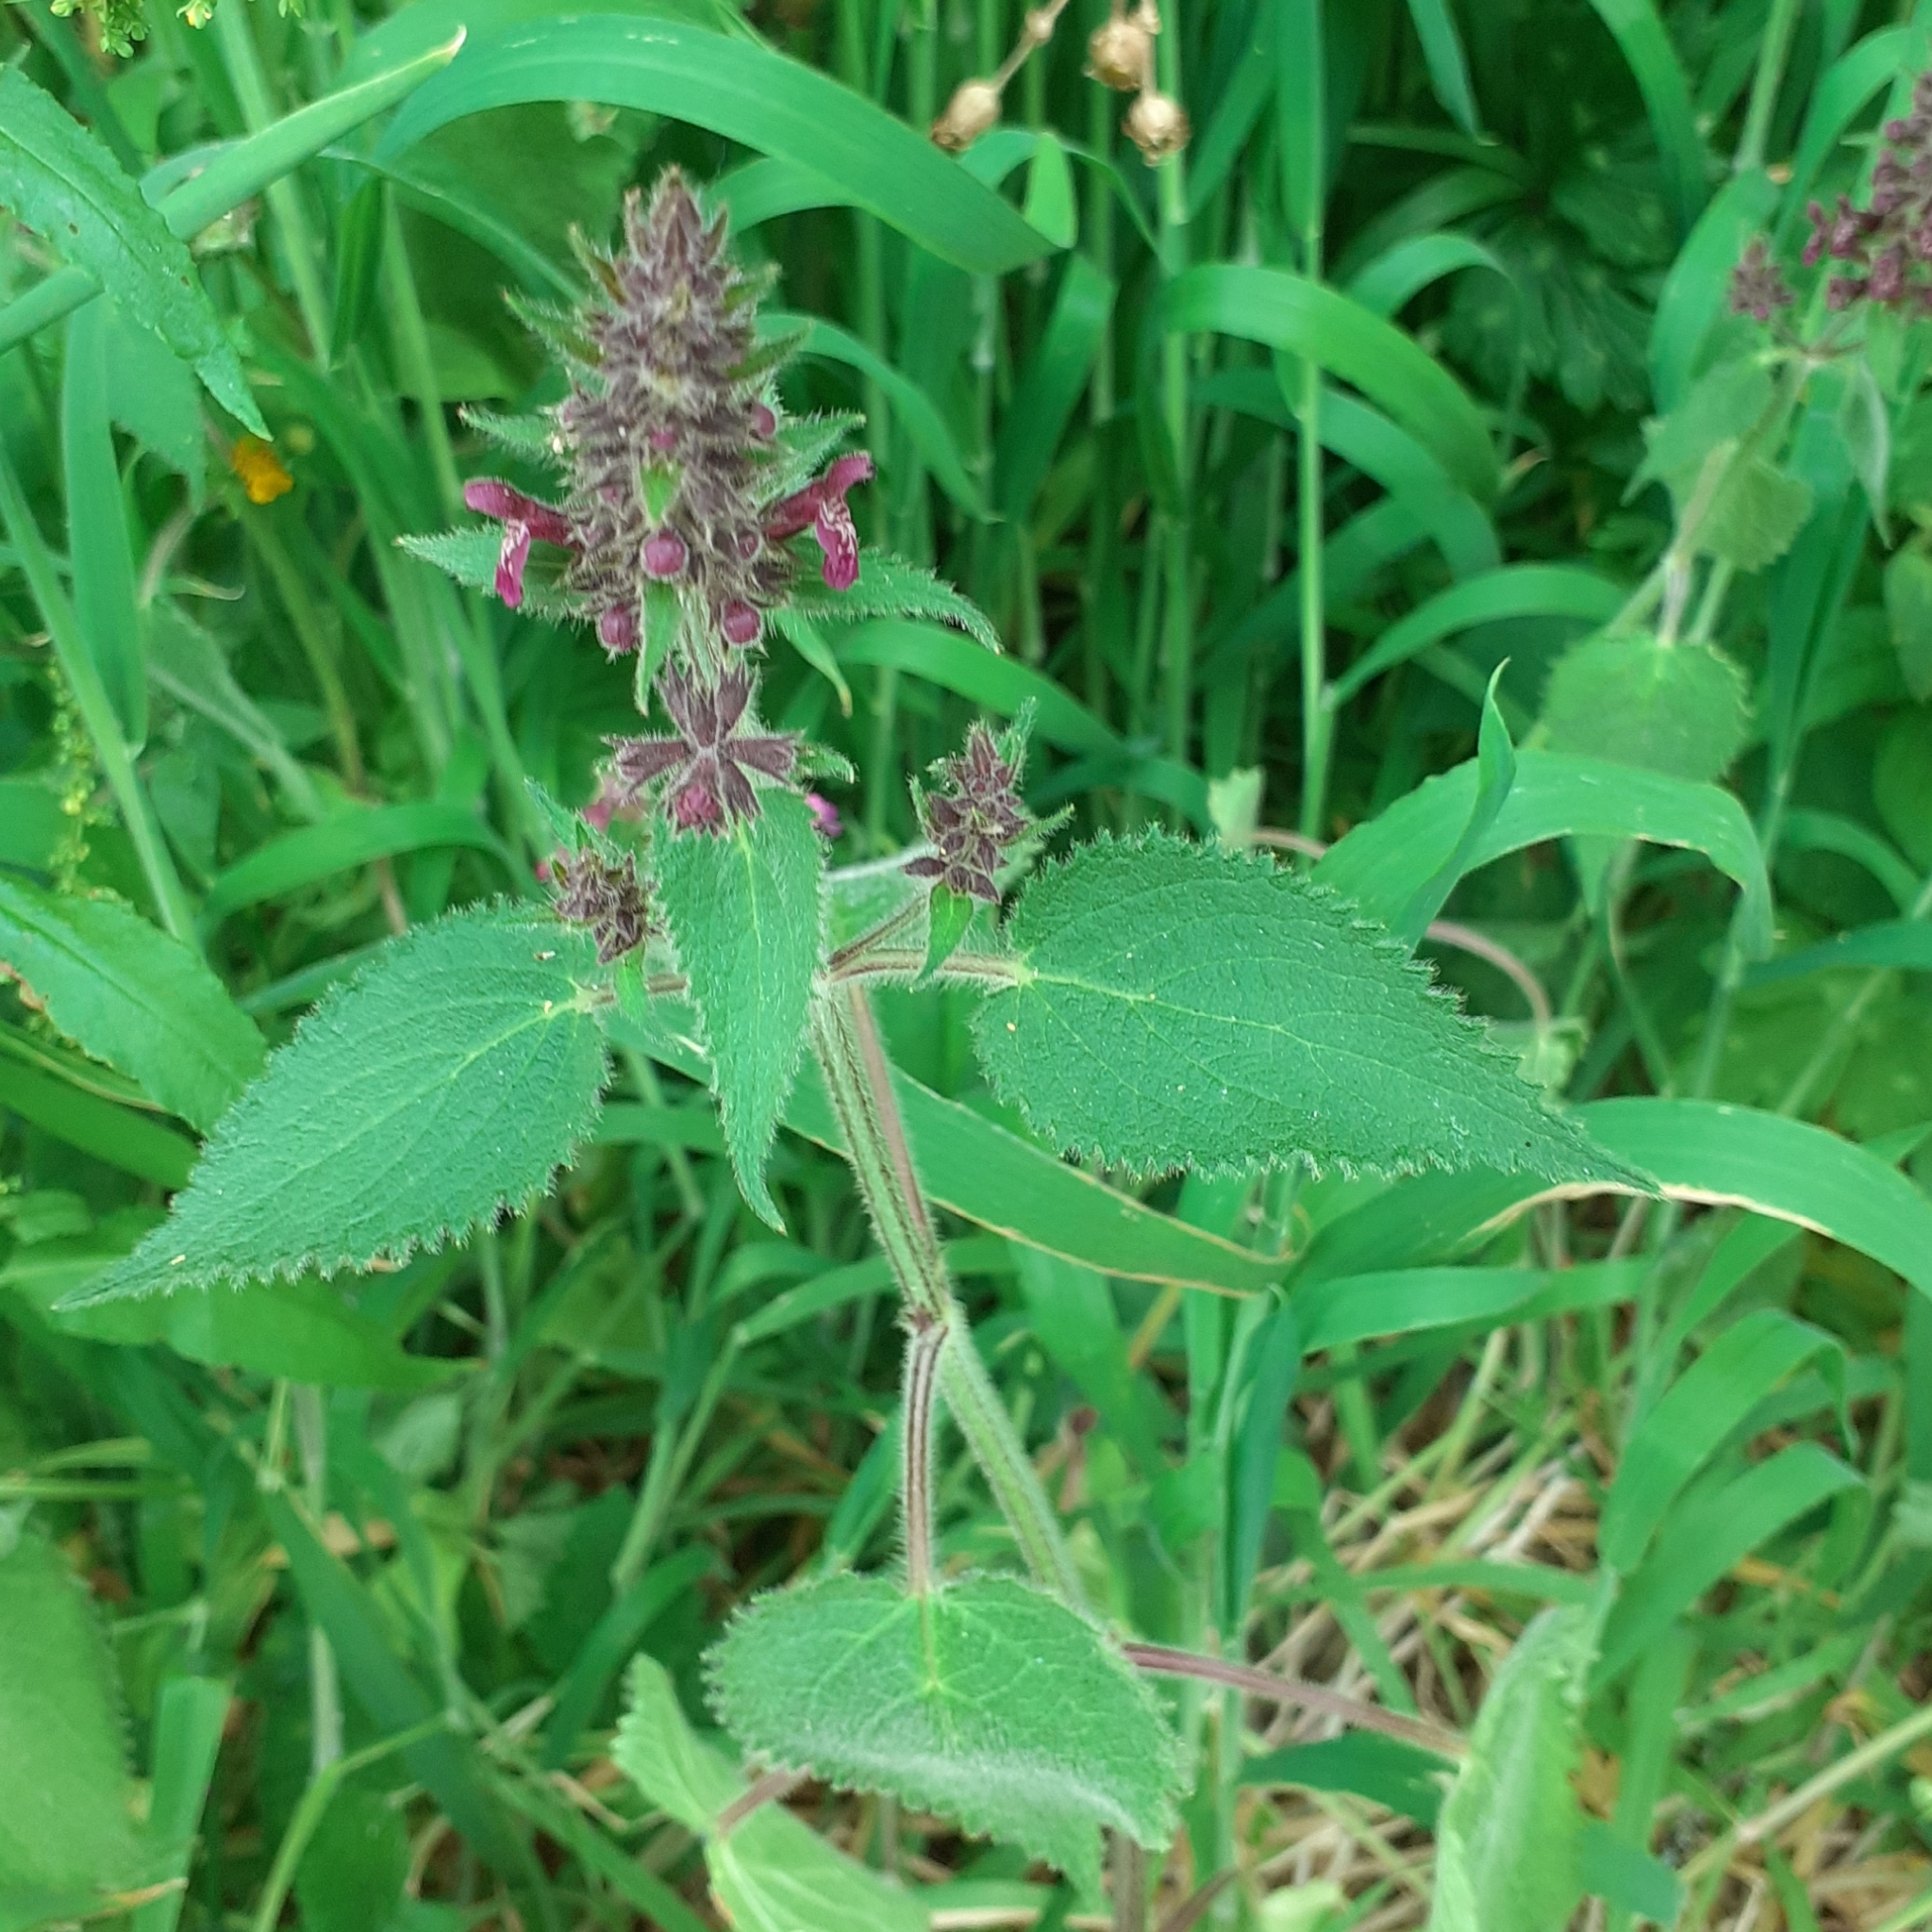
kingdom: Plantae
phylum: Tracheophyta
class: Magnoliopsida
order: Lamiales
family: Lamiaceae
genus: Stachys
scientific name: Stachys sylvatica
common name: Hedge woundwort
